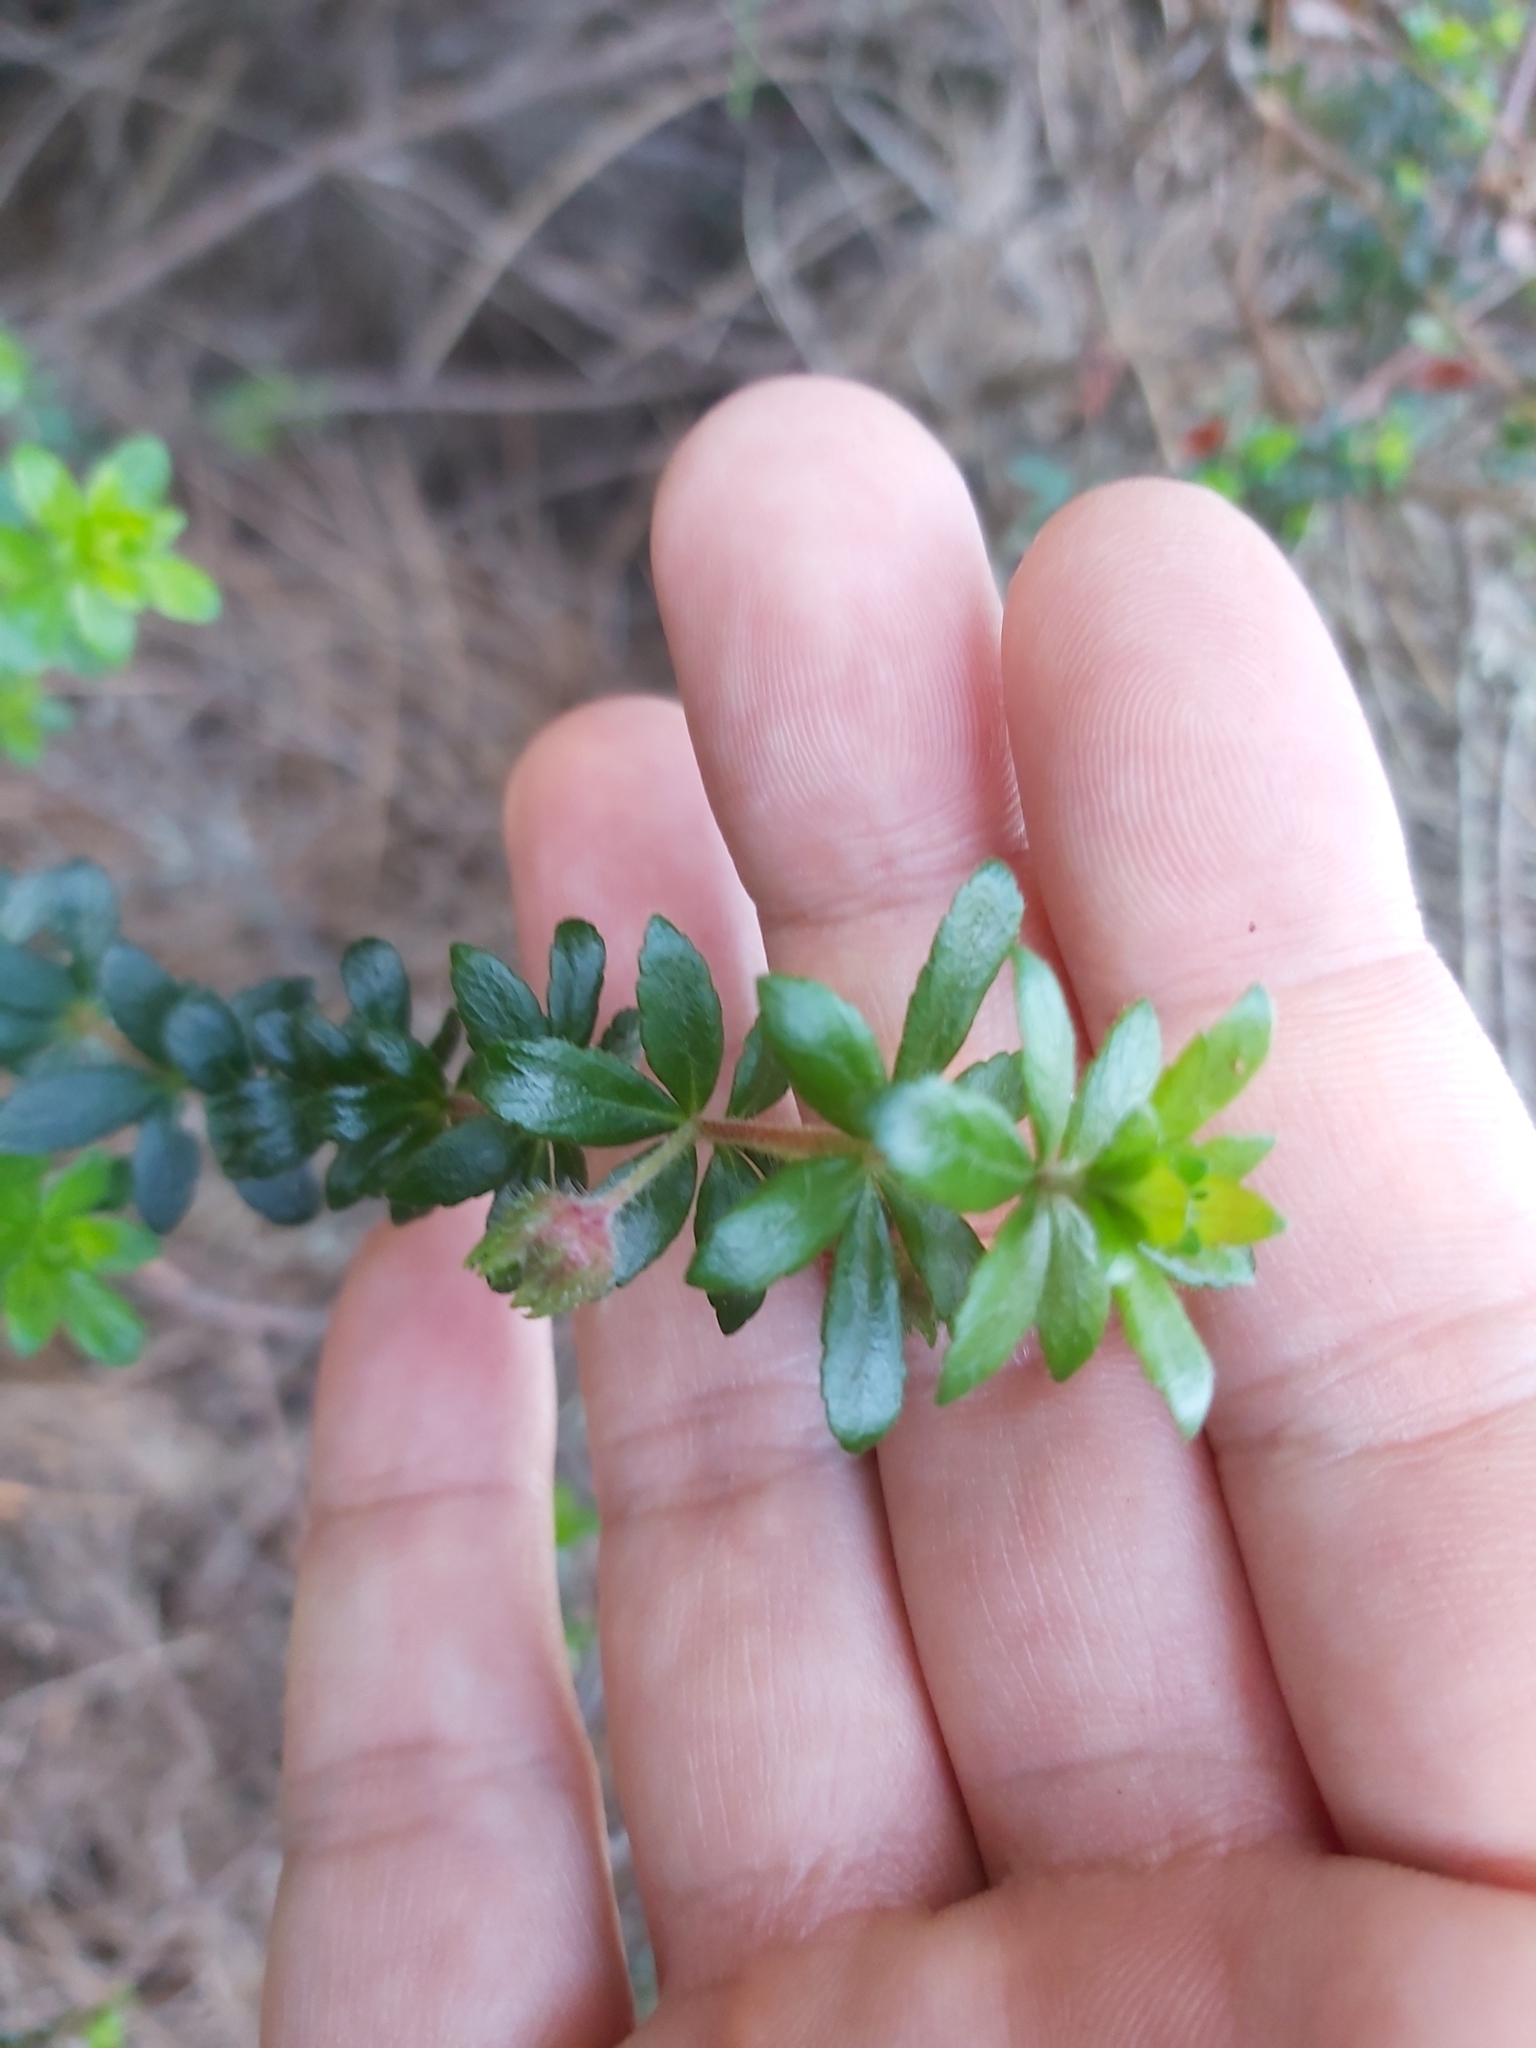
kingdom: Plantae
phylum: Tracheophyta
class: Magnoliopsida
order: Oxalidales
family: Cunoniaceae
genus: Bauera
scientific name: Bauera rubioides
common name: River-rose
